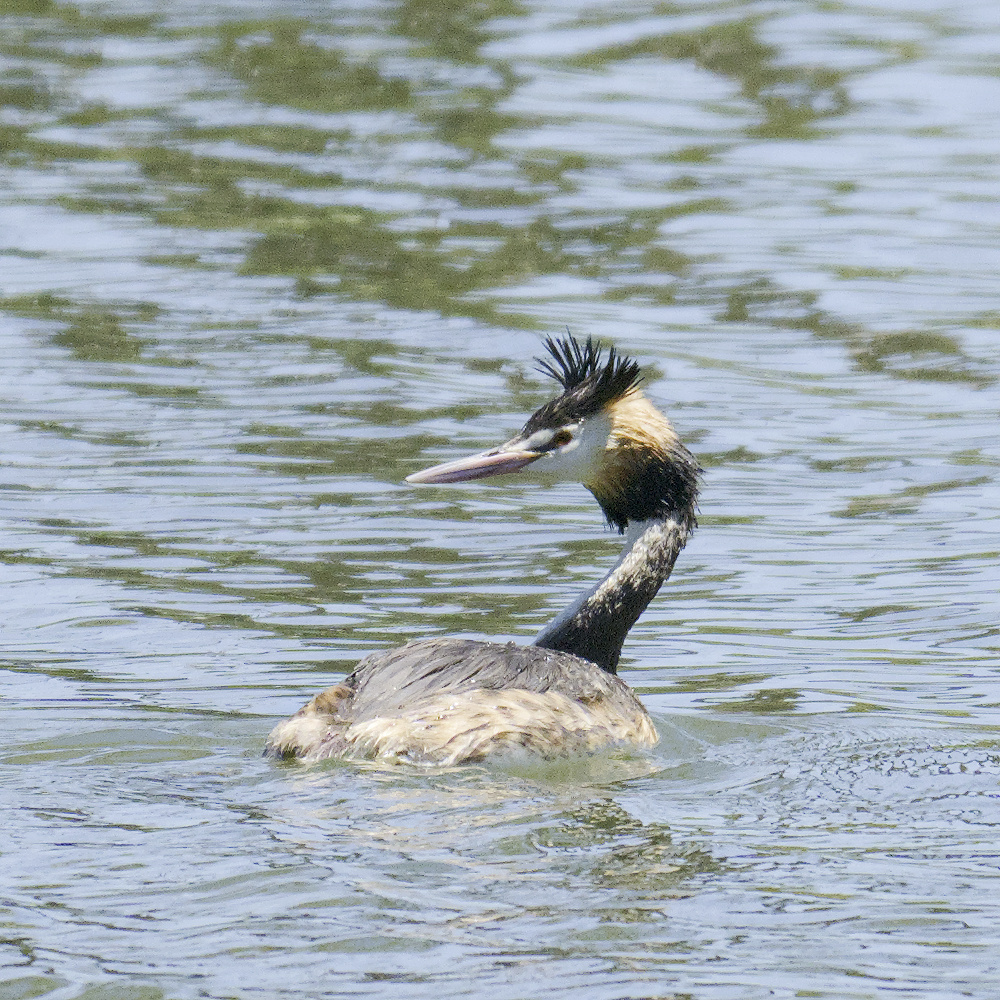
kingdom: Animalia
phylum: Chordata
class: Aves
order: Podicipediformes
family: Podicipedidae
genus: Podiceps
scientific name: Podiceps cristatus
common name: Great crested grebe
